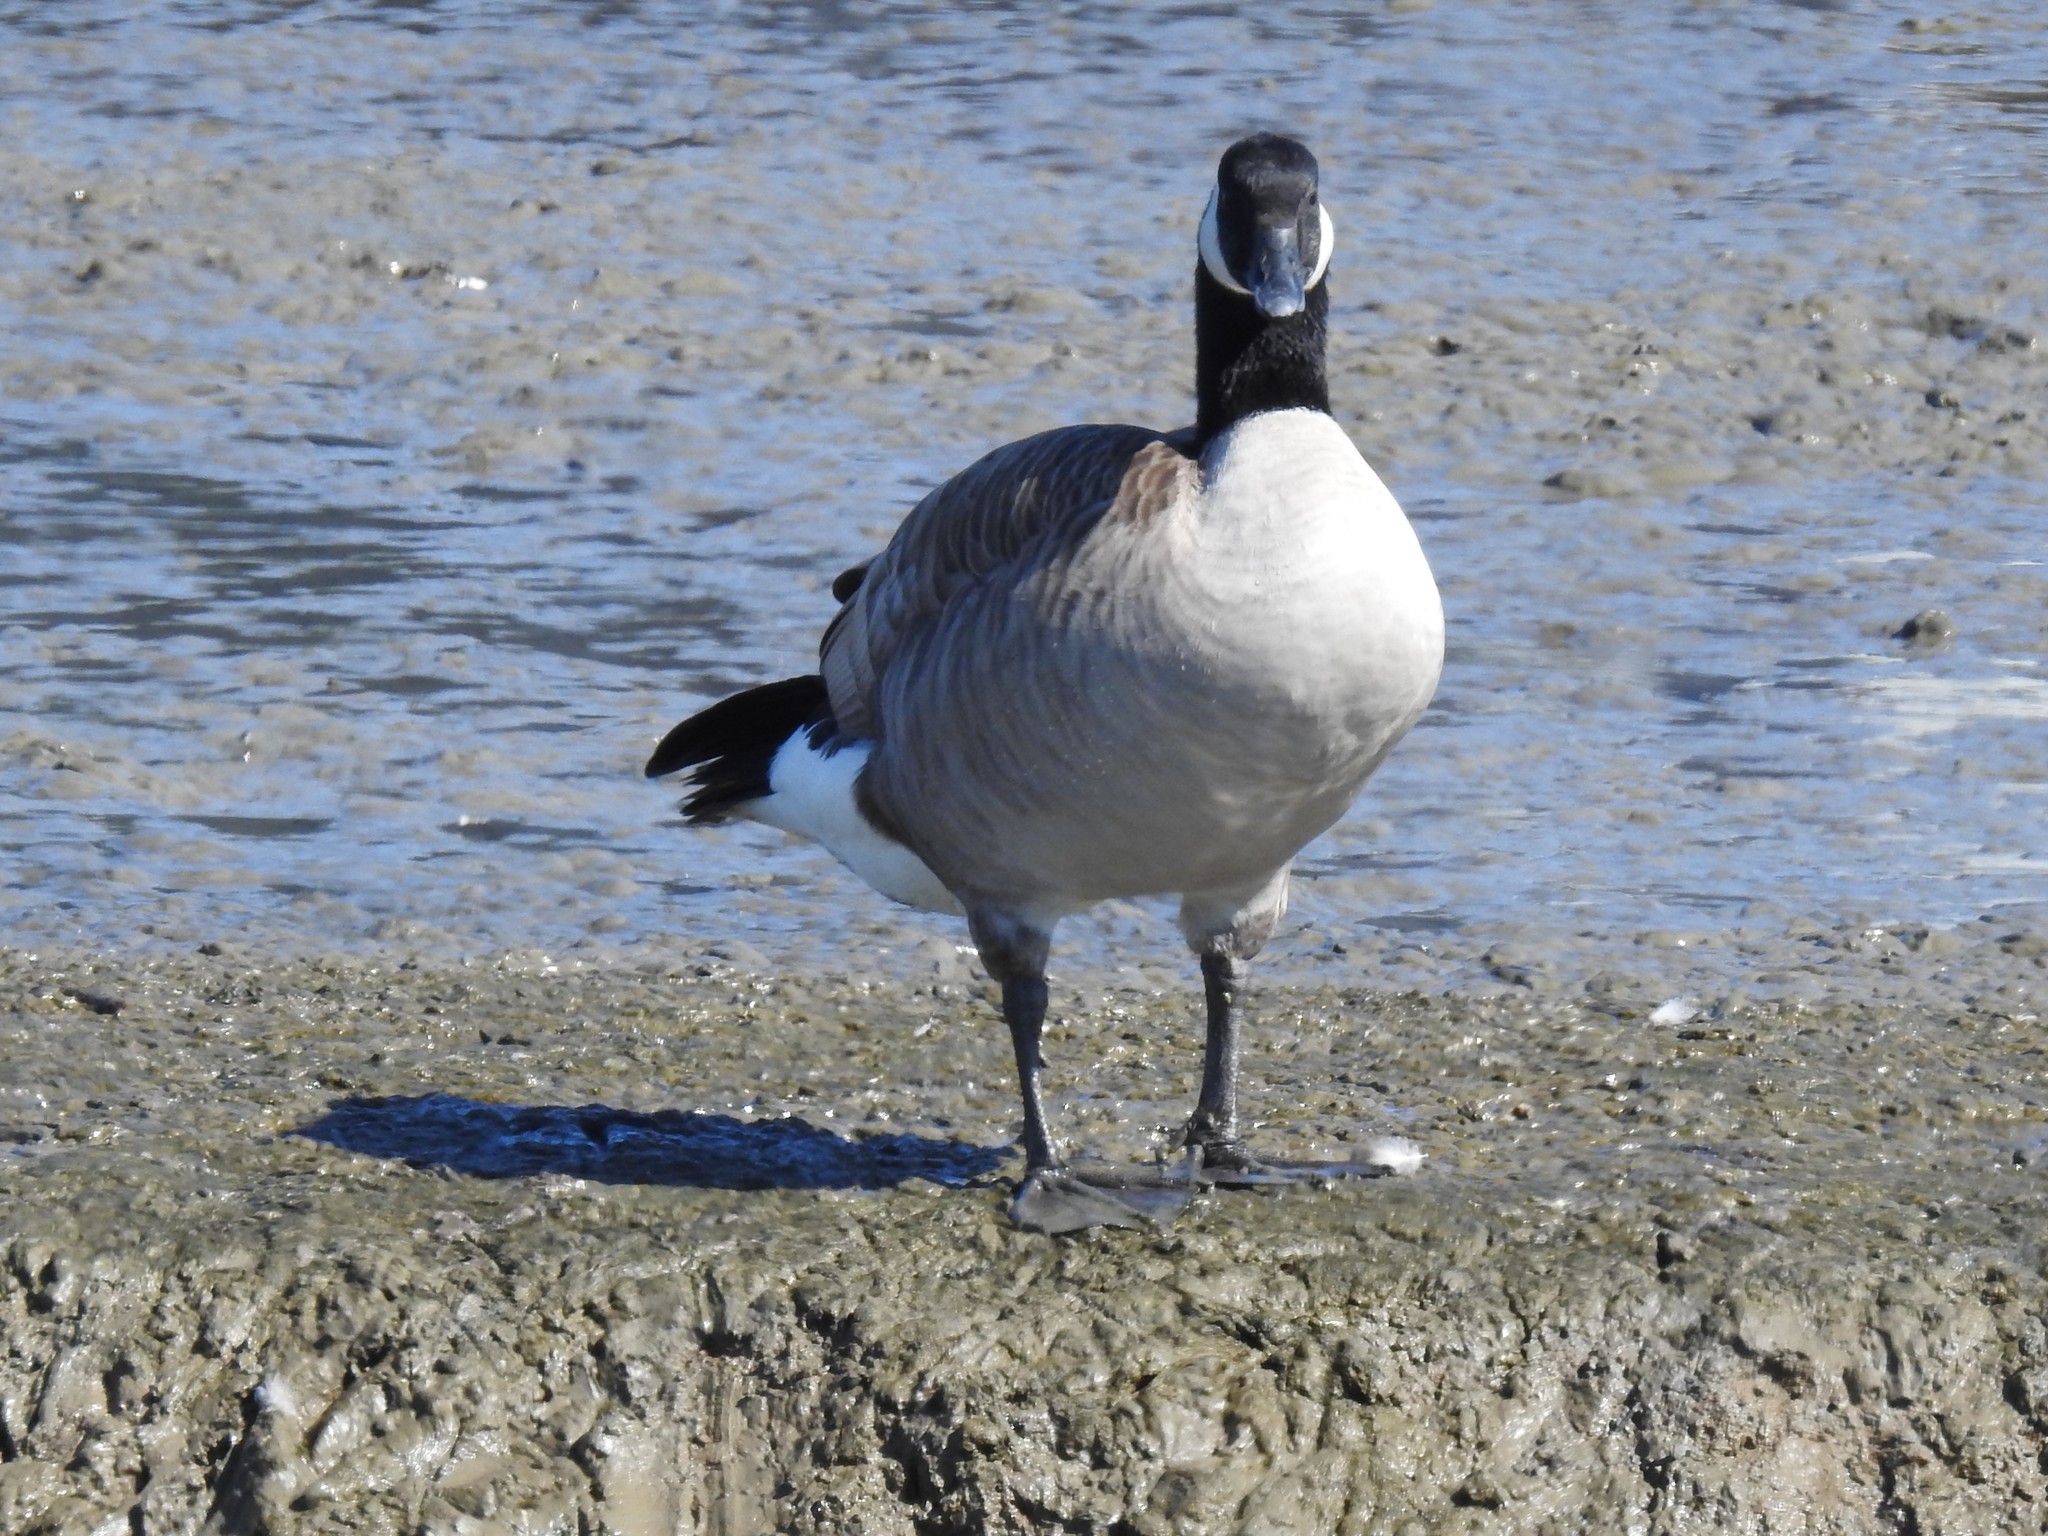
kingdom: Animalia
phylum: Chordata
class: Aves
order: Anseriformes
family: Anatidae
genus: Branta
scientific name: Branta canadensis
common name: Canada goose
